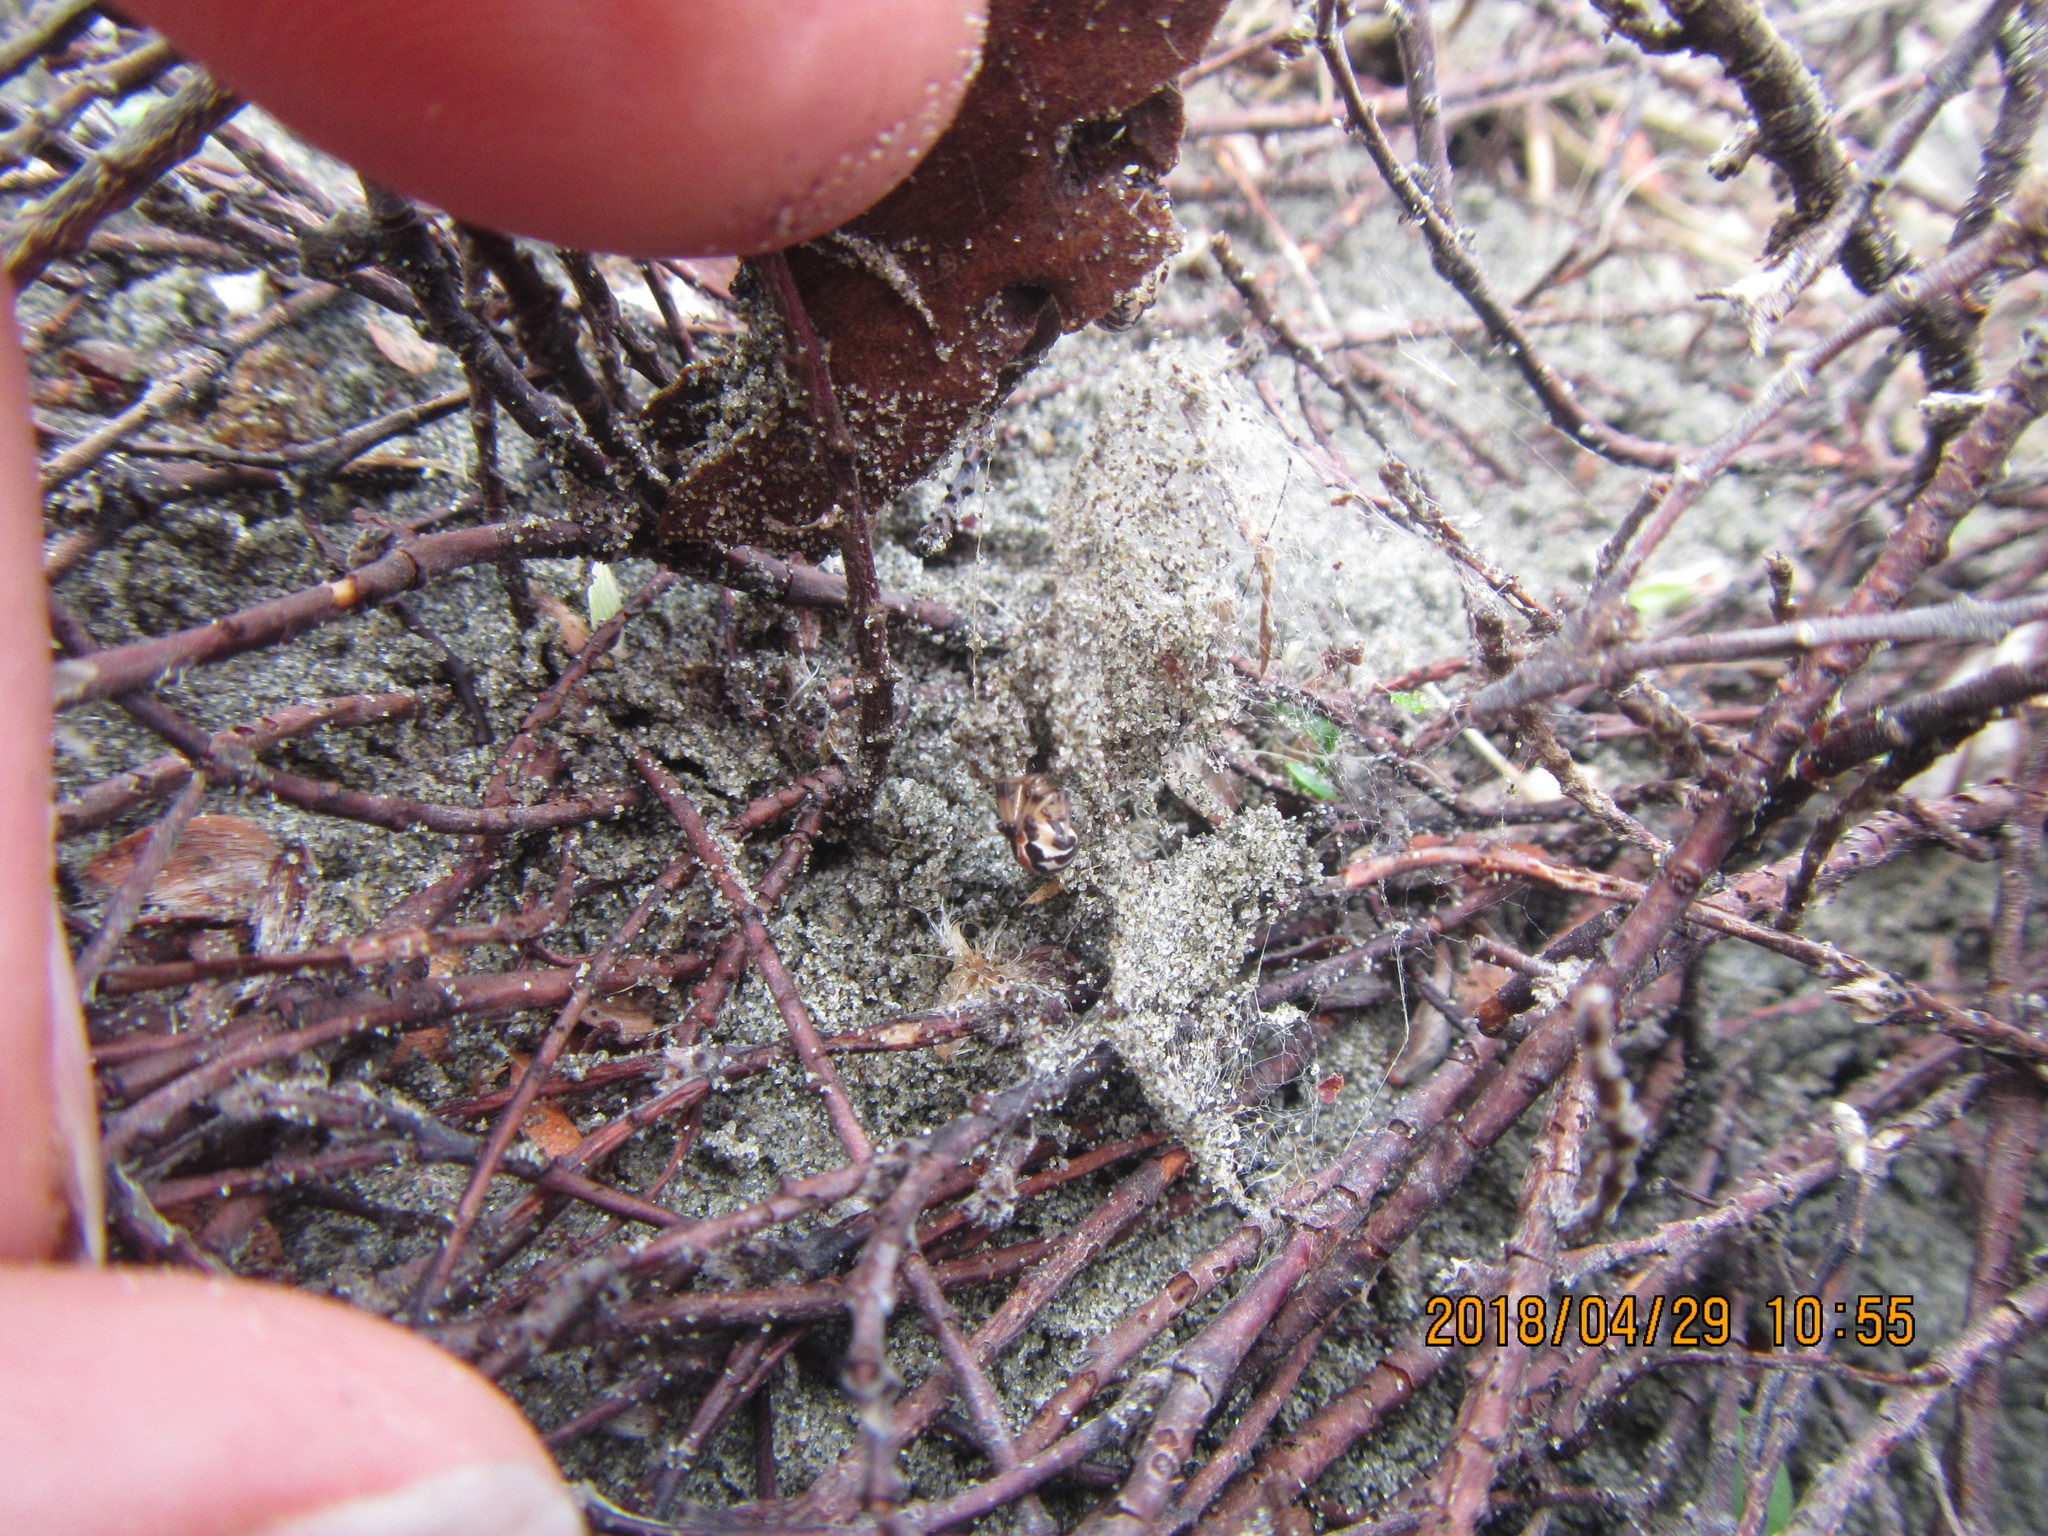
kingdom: Animalia
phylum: Arthropoda
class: Arachnida
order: Araneae
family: Theridiidae
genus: Latrodectus
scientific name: Latrodectus katipo
